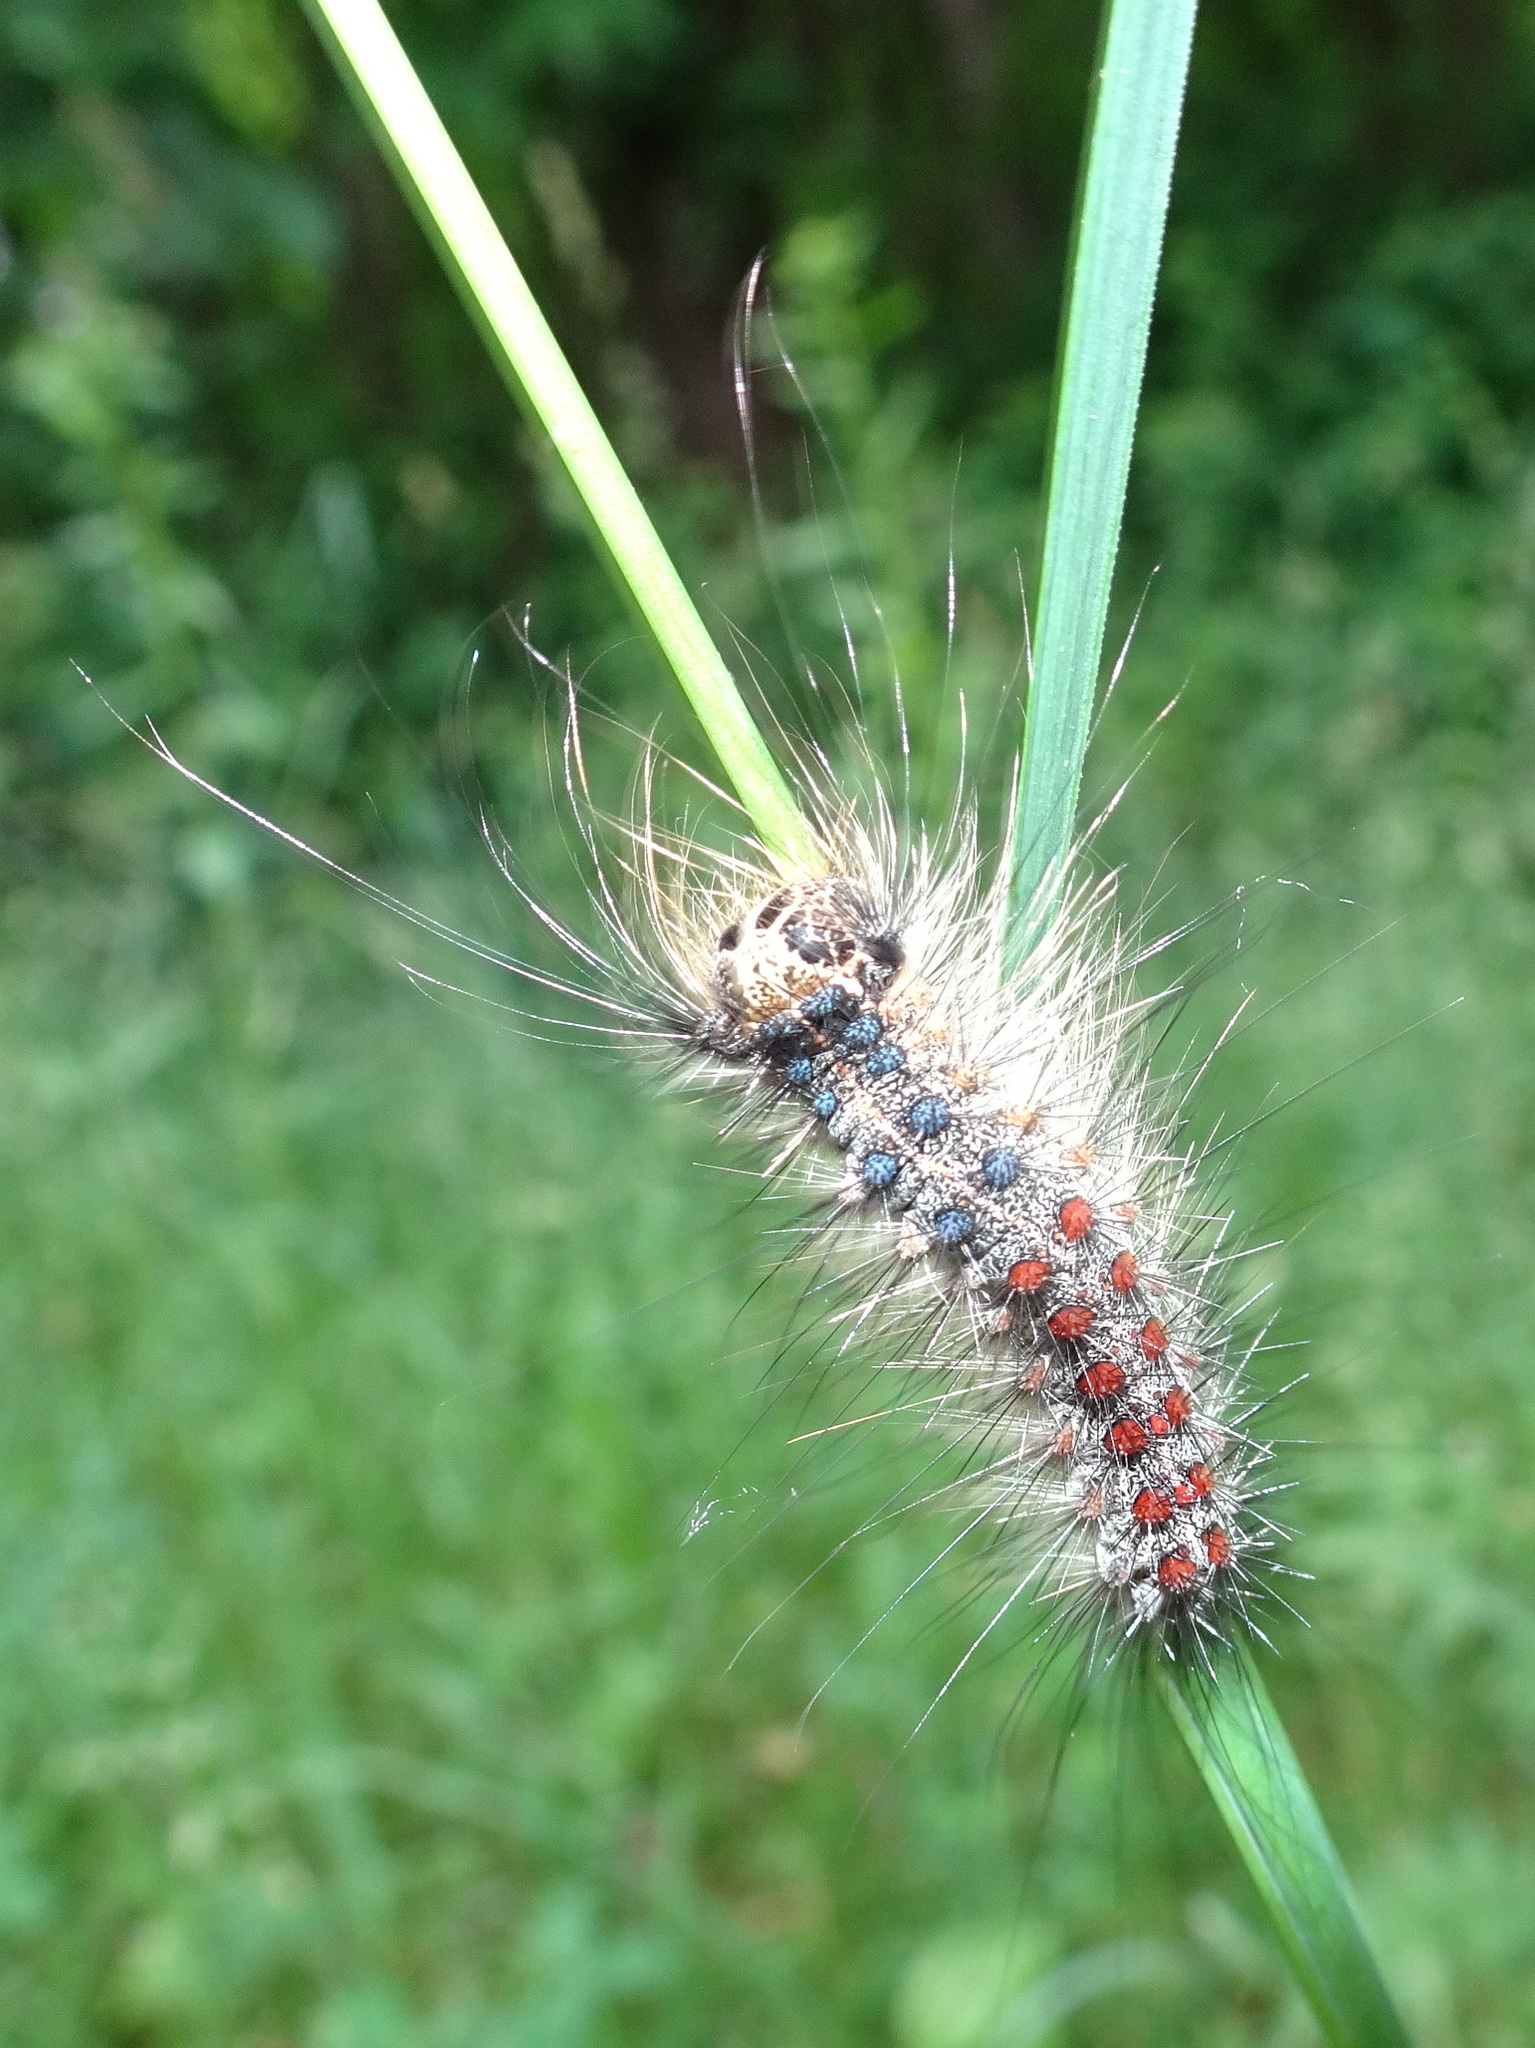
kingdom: Animalia
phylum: Arthropoda
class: Insecta
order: Lepidoptera
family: Erebidae
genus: Lymantria
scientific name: Lymantria dispar
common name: Gypsy moth
